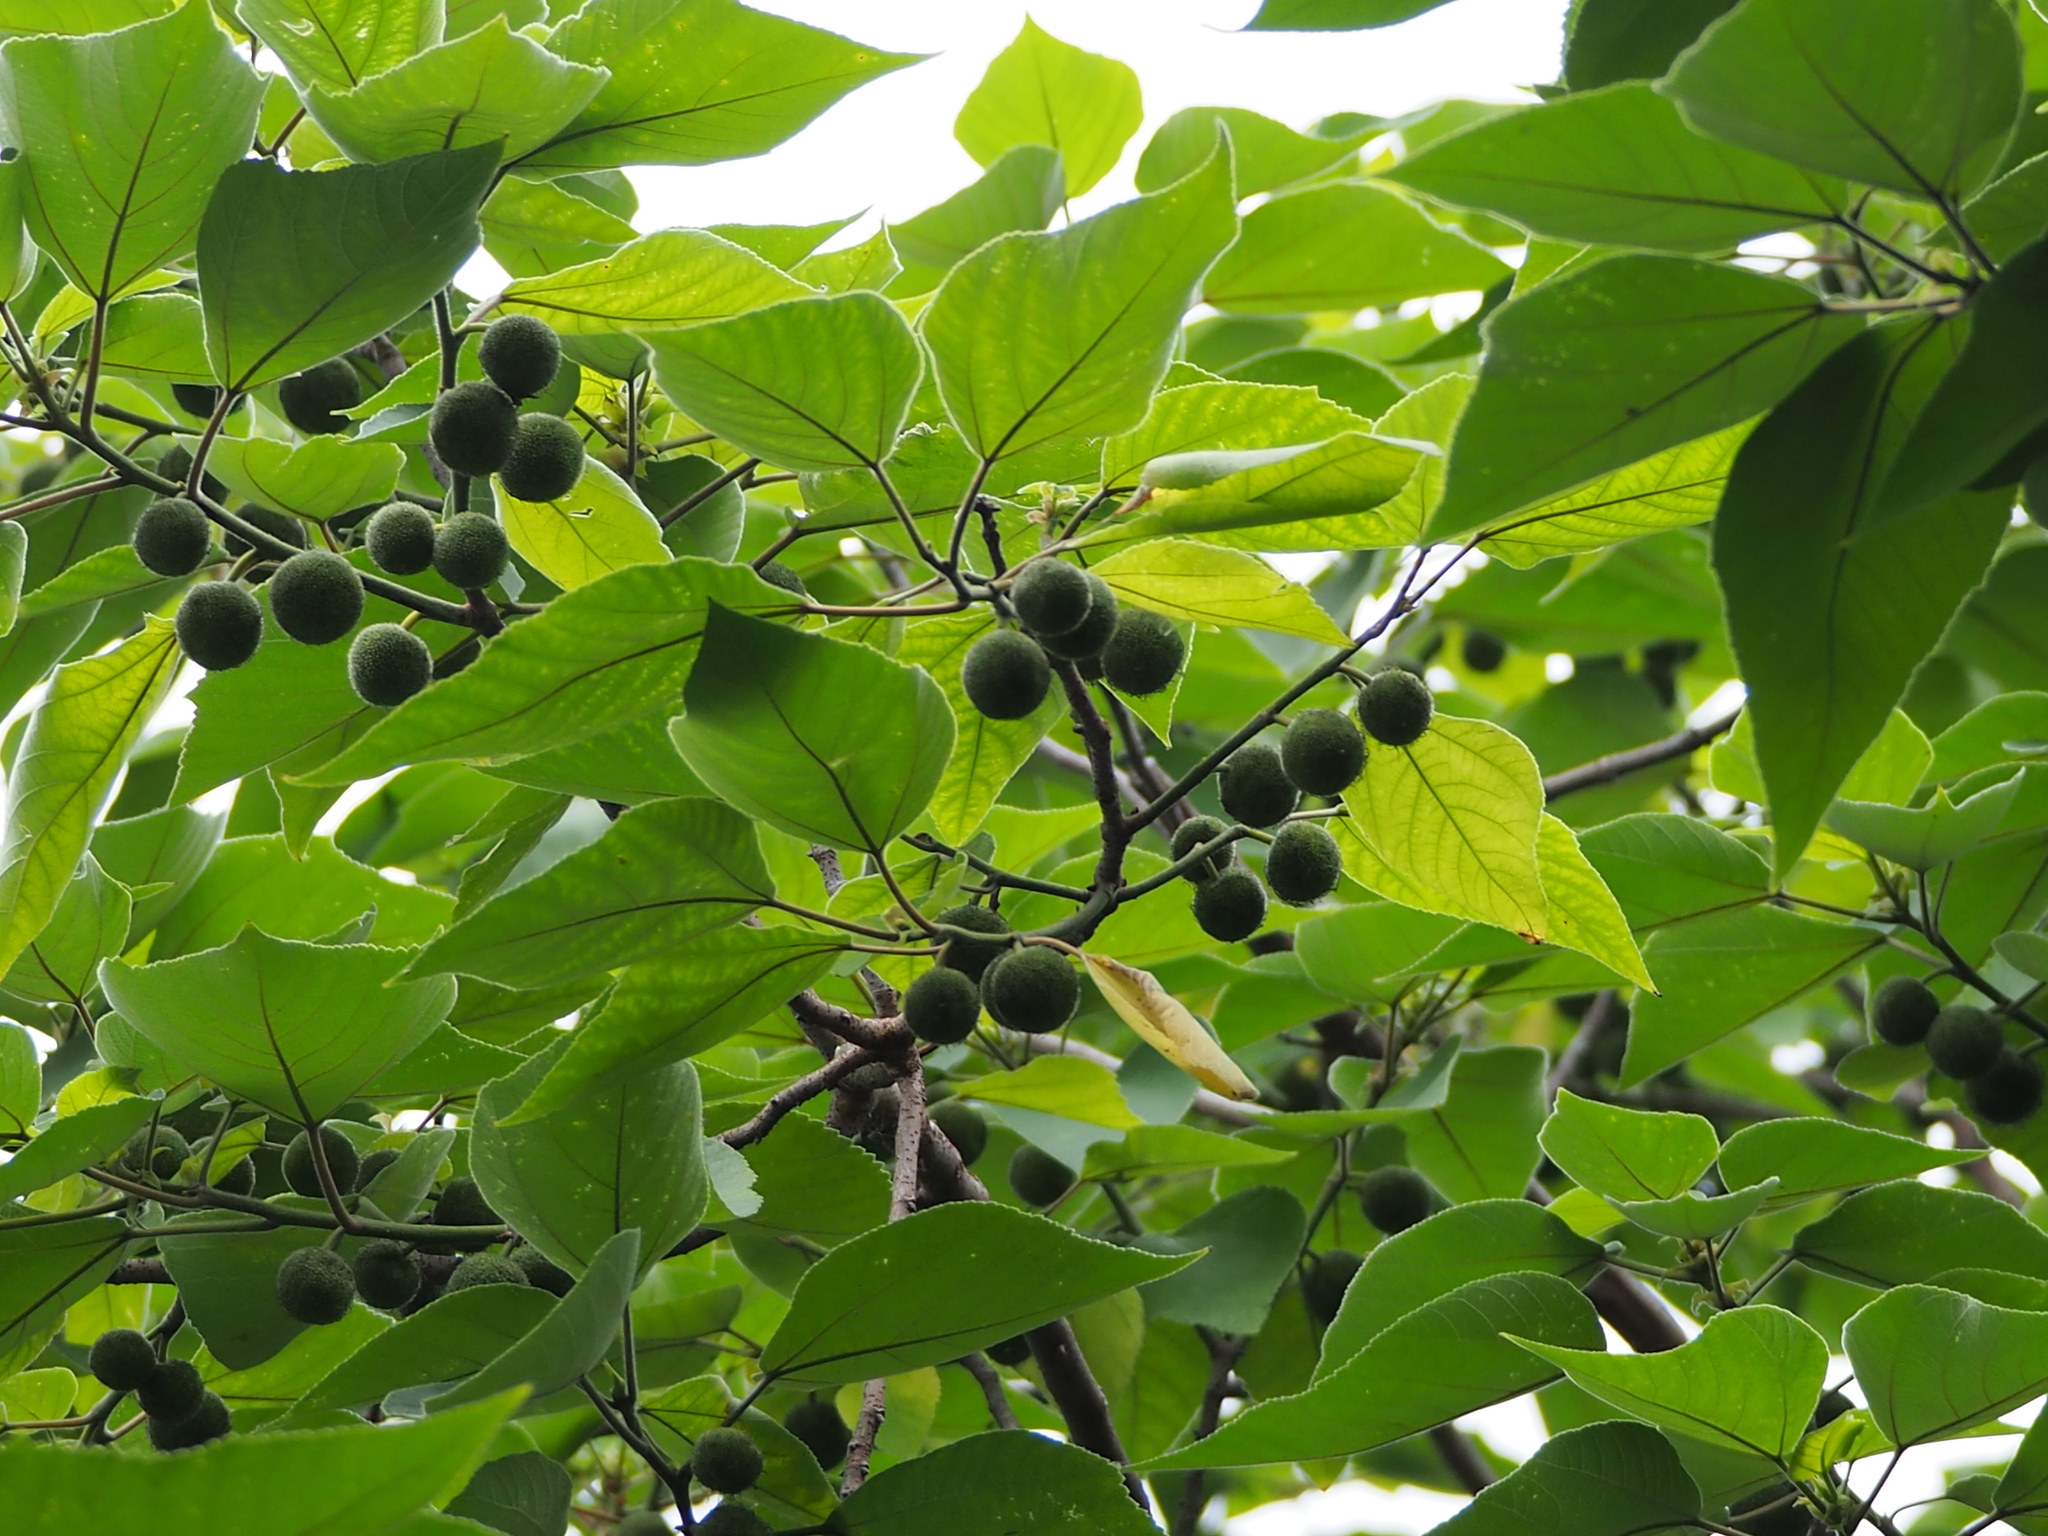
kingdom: Plantae
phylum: Tracheophyta
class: Magnoliopsida
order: Rosales
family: Moraceae
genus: Broussonetia
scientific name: Broussonetia papyrifera
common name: Paper mulberry
